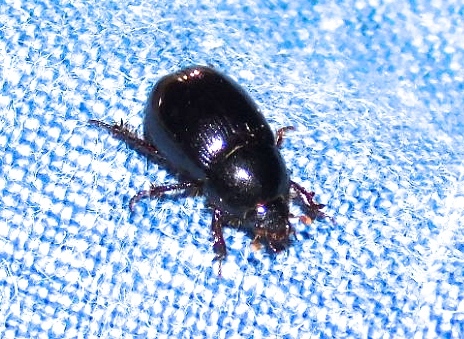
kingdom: Animalia
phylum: Arthropoda
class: Insecta
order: Coleoptera
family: Hybosoridae
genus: Hybosorus
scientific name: Hybosorus illigeri
